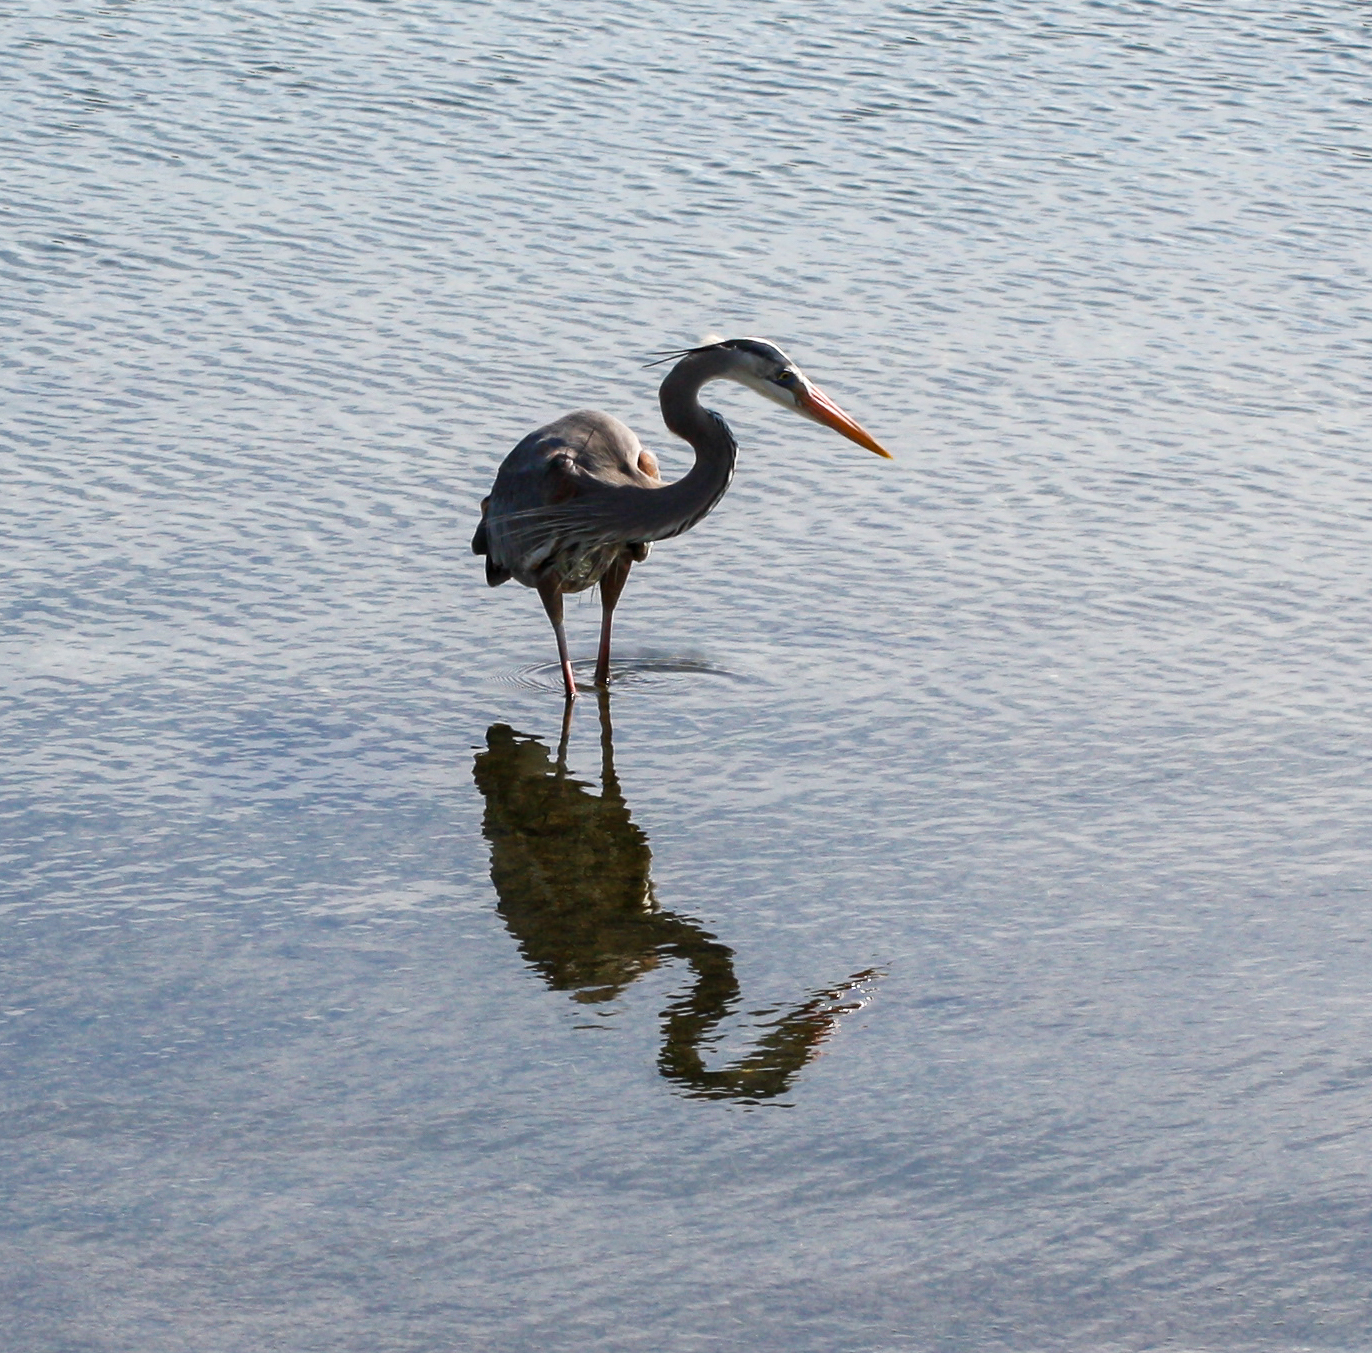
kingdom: Animalia
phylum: Chordata
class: Aves
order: Pelecaniformes
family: Ardeidae
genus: Ardea
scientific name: Ardea herodias
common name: Great blue heron
